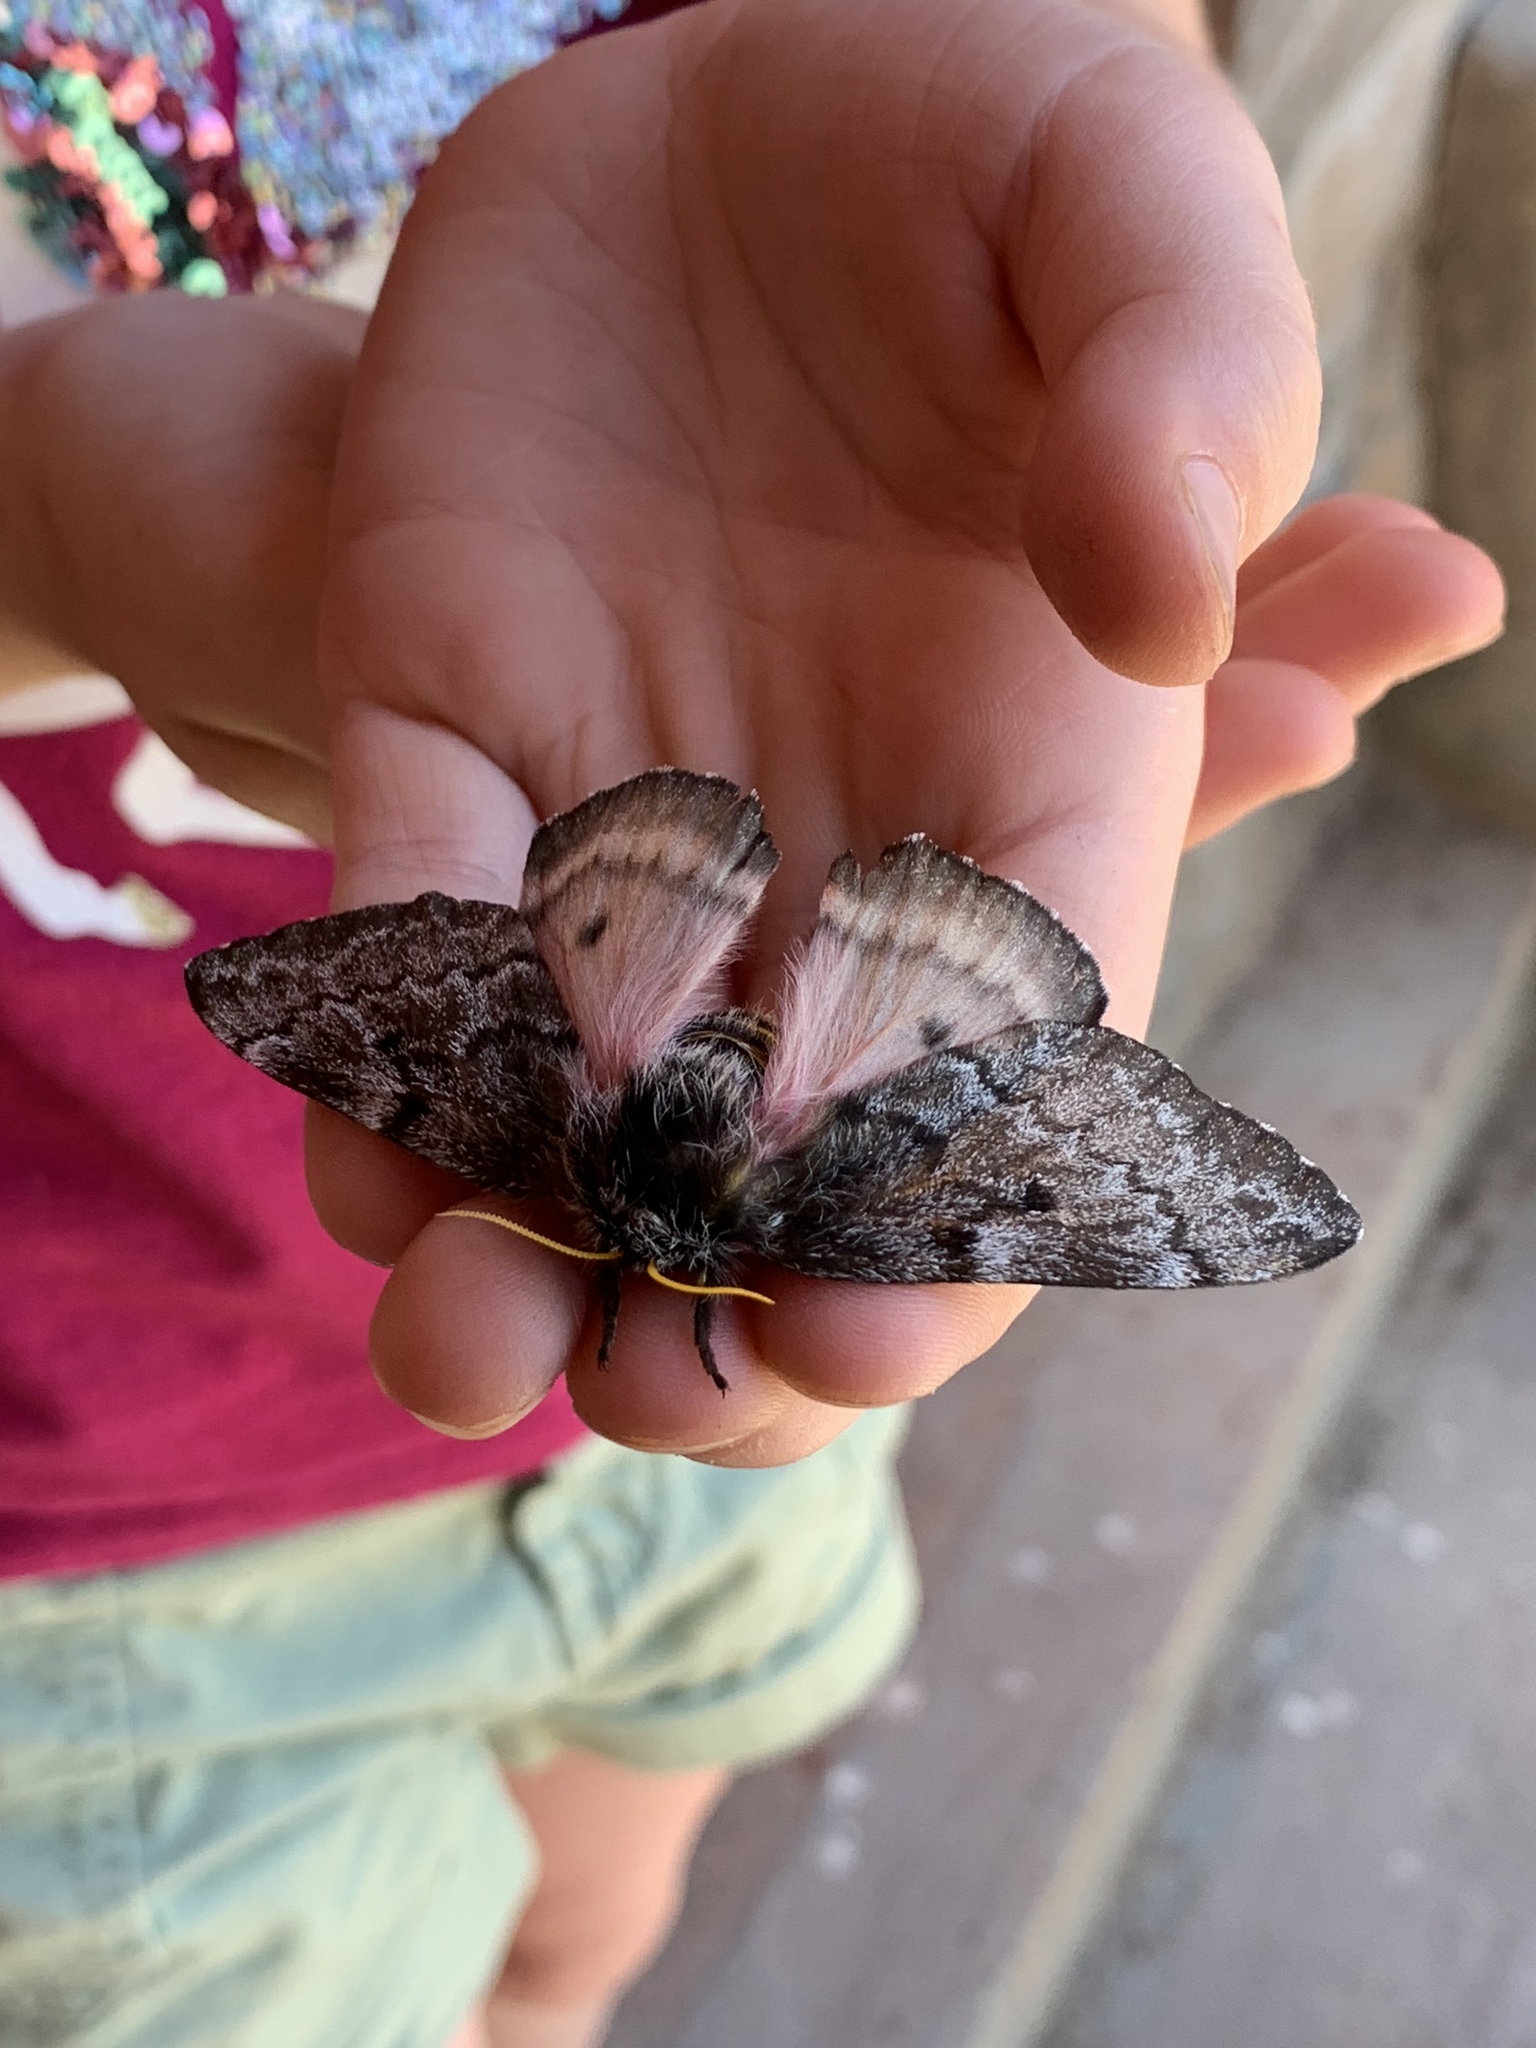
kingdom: Animalia
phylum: Arthropoda
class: Insecta
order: Lepidoptera
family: Saturniidae
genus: Coloradia
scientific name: Coloradia pandora
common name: Pandora pinemoth
